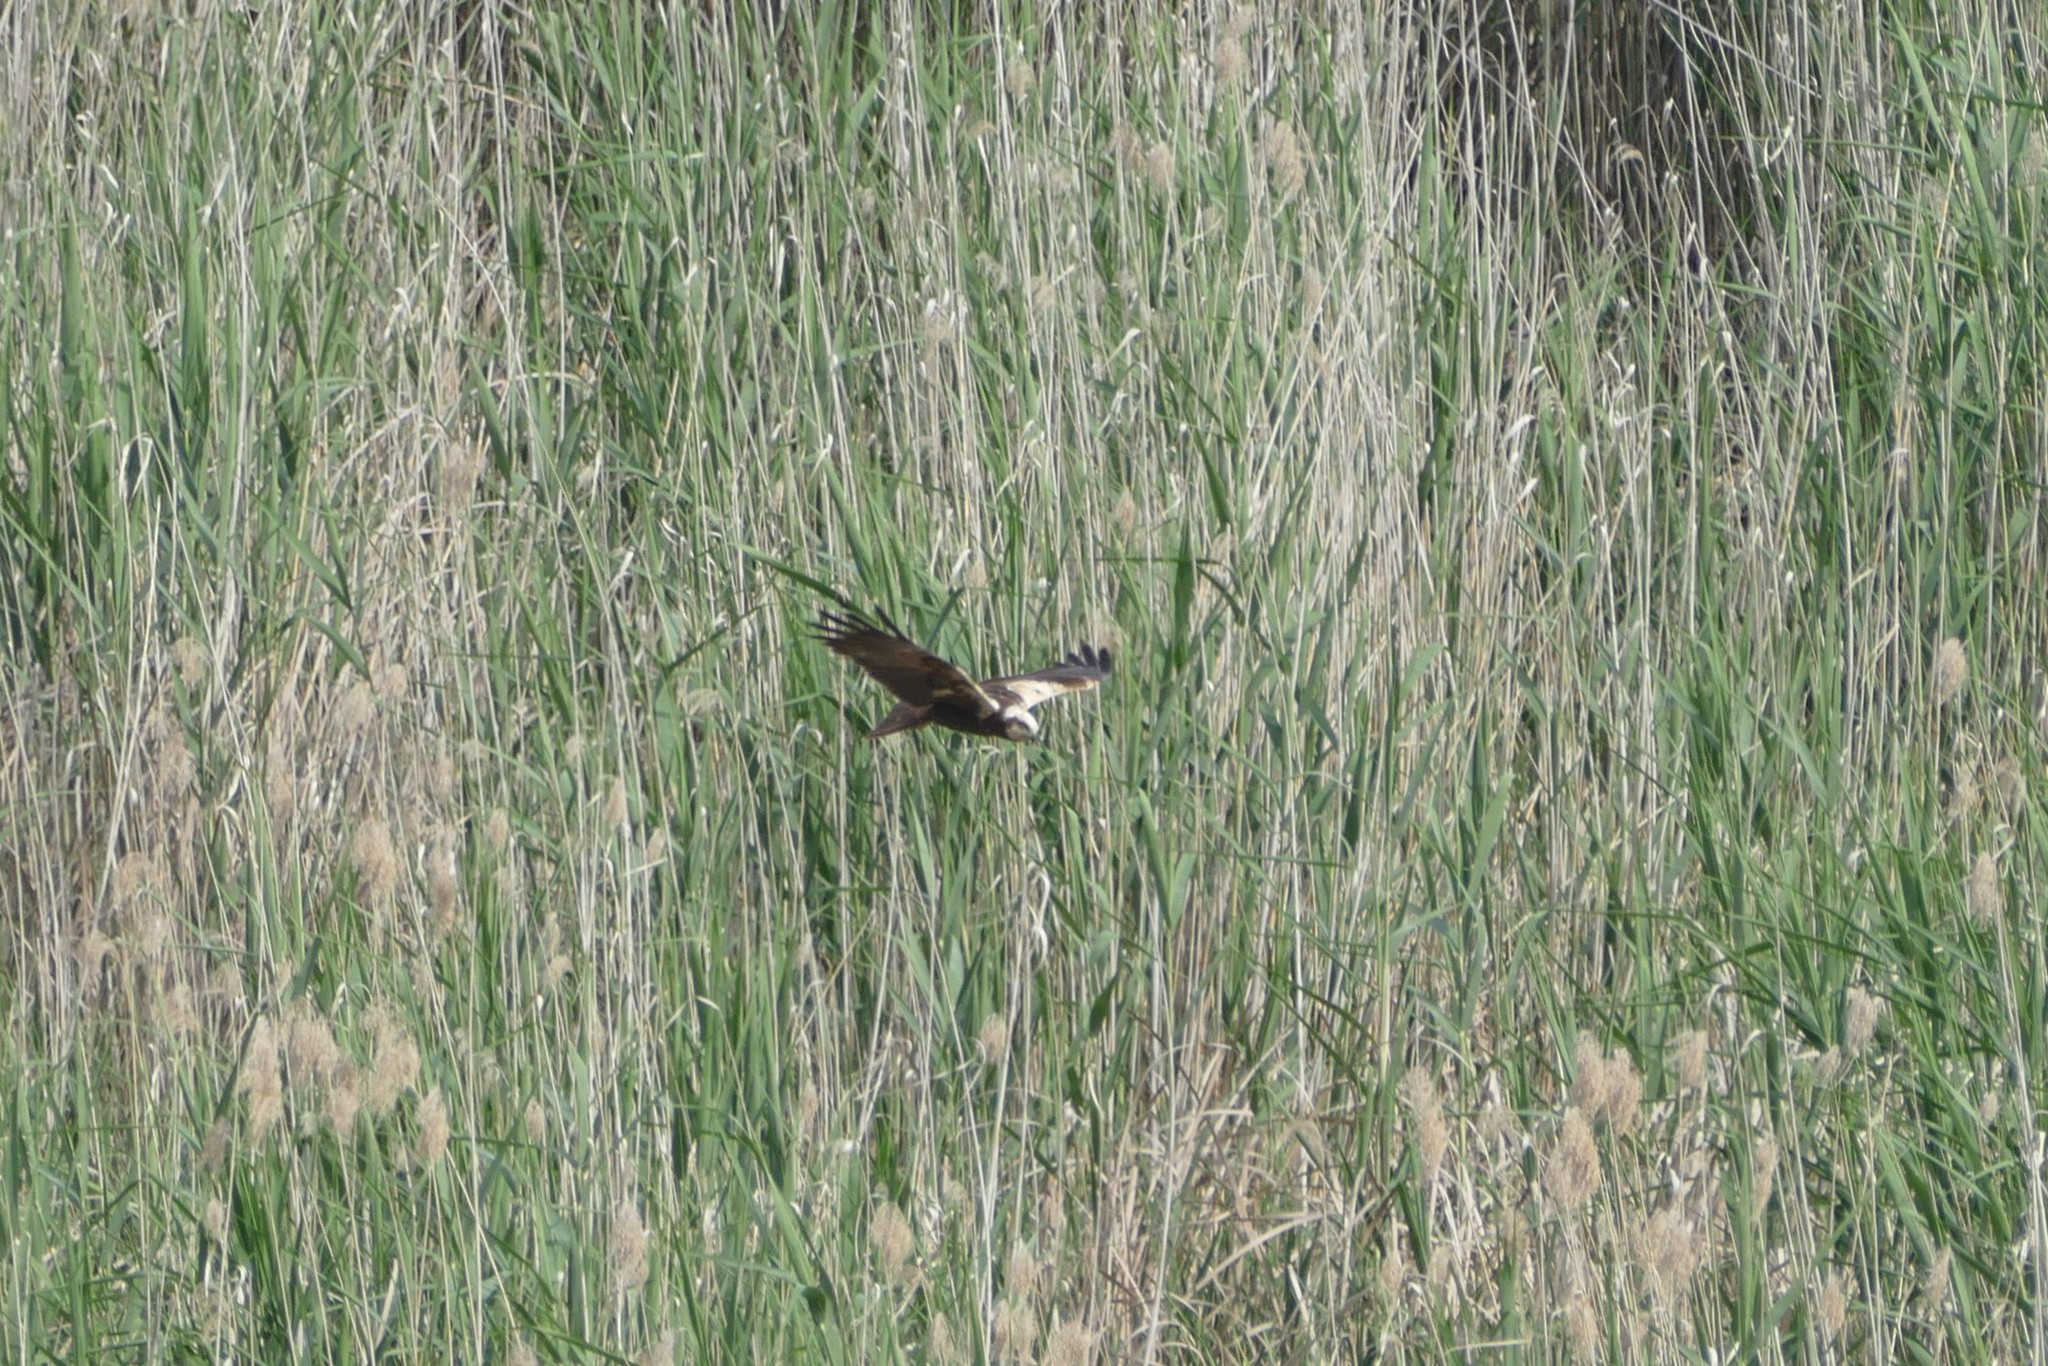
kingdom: Animalia
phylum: Chordata
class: Aves
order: Accipitriformes
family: Accipitridae
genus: Circus
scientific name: Circus aeruginosus
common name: Western marsh harrier
